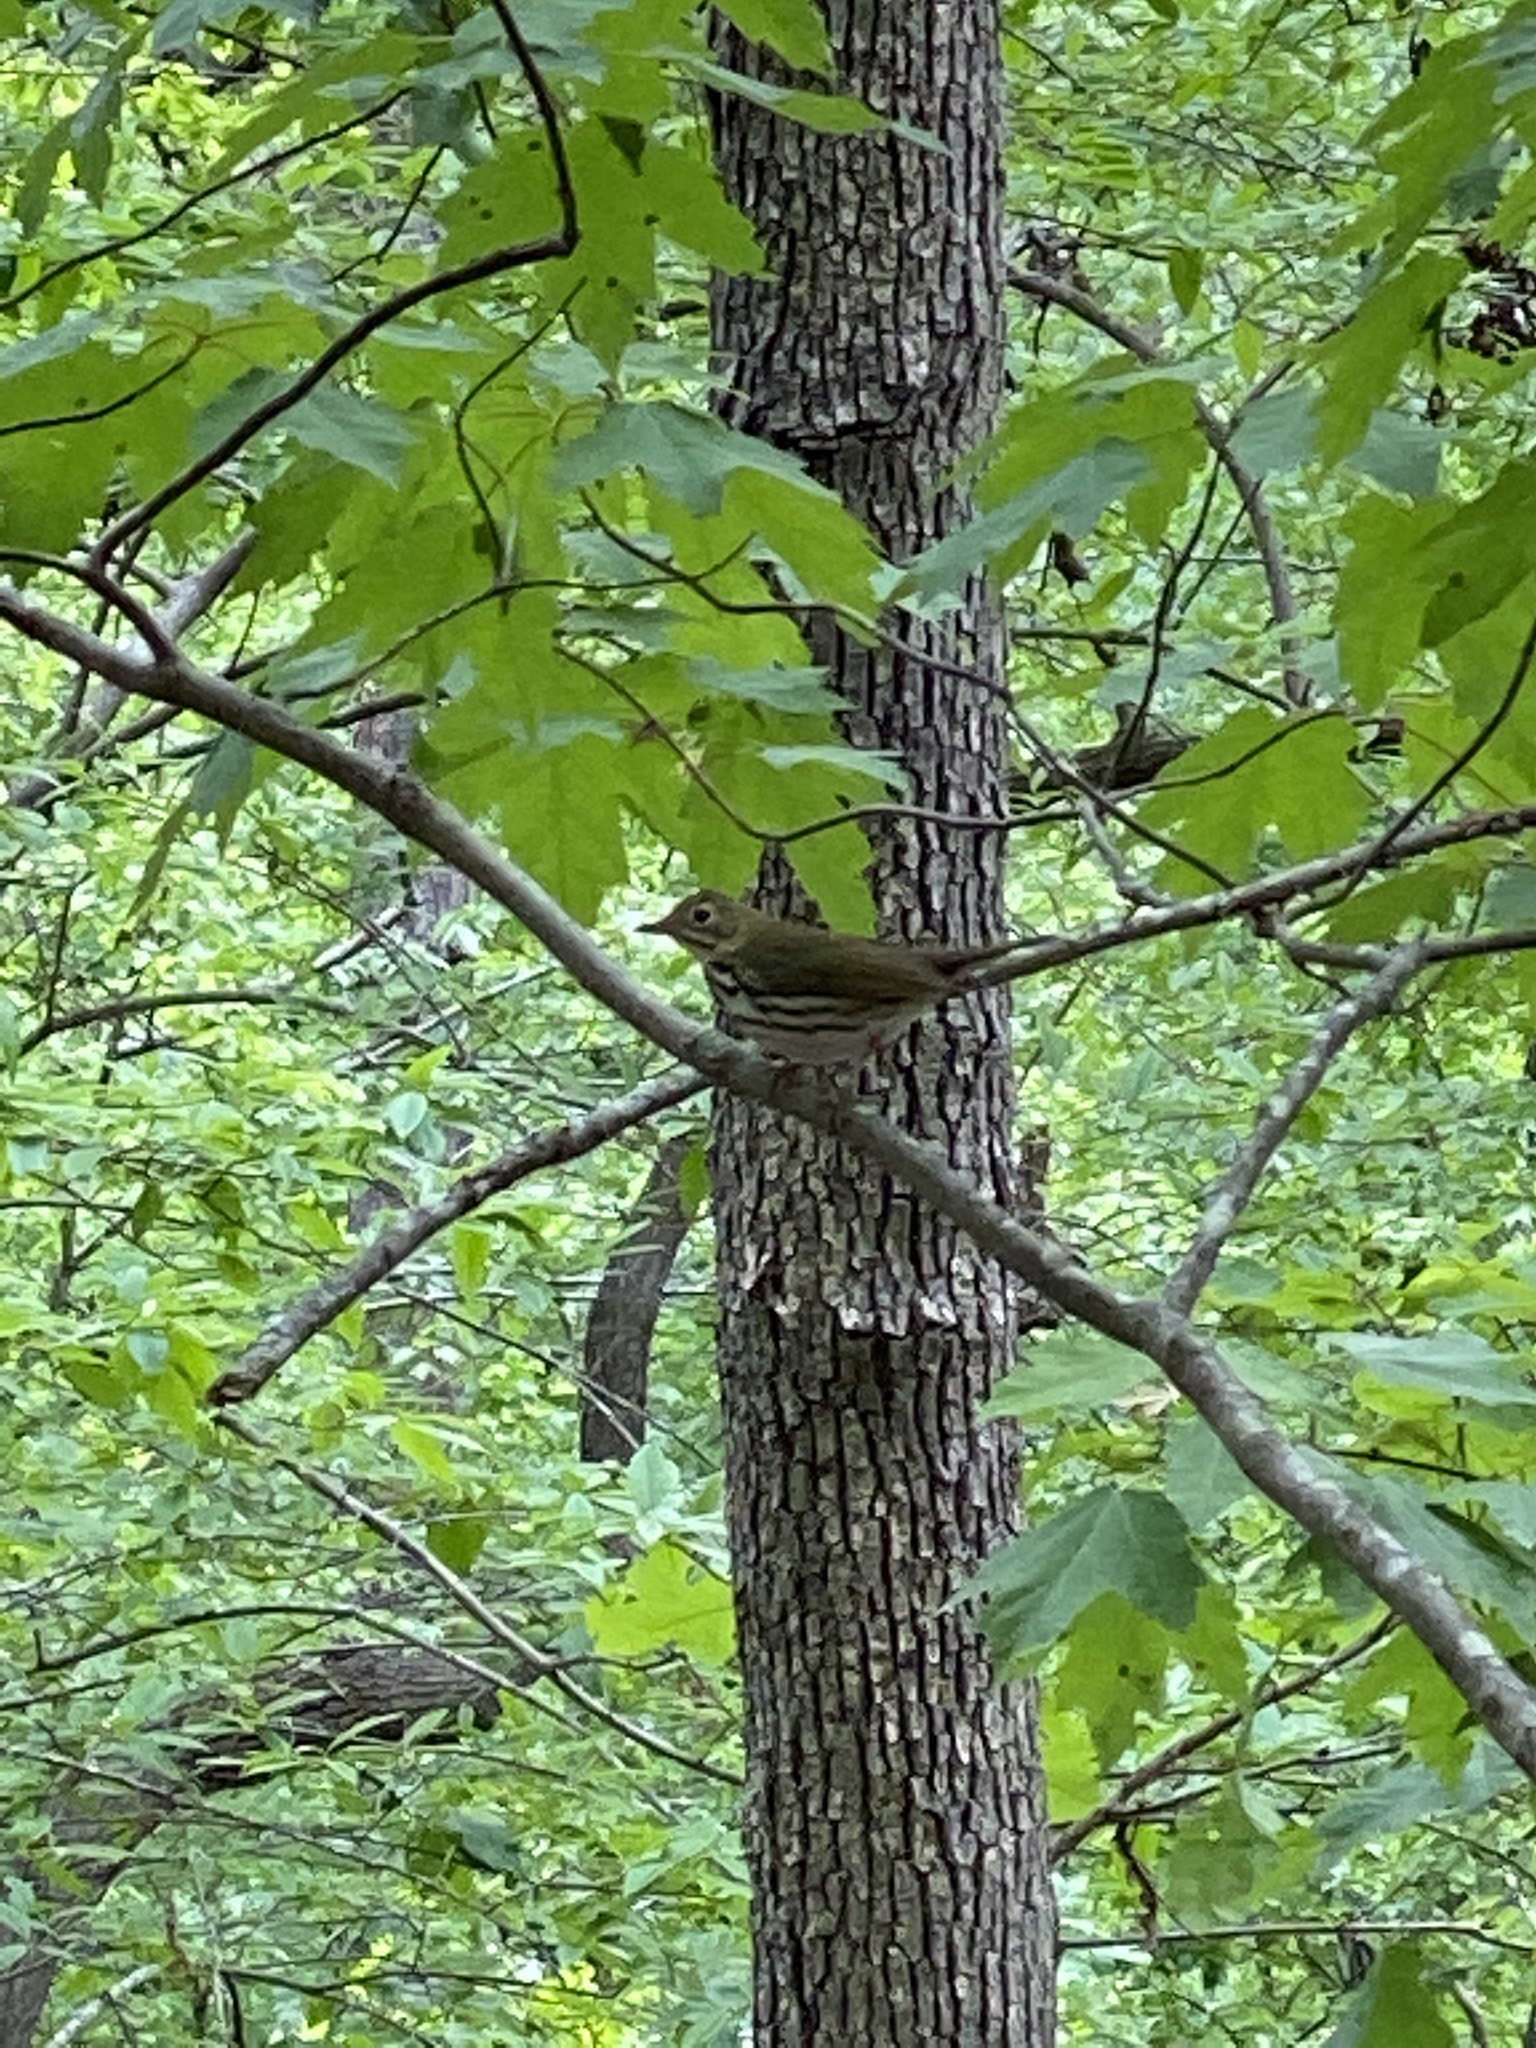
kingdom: Animalia
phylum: Chordata
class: Aves
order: Passeriformes
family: Parulidae
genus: Seiurus
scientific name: Seiurus aurocapilla
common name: Ovenbird
